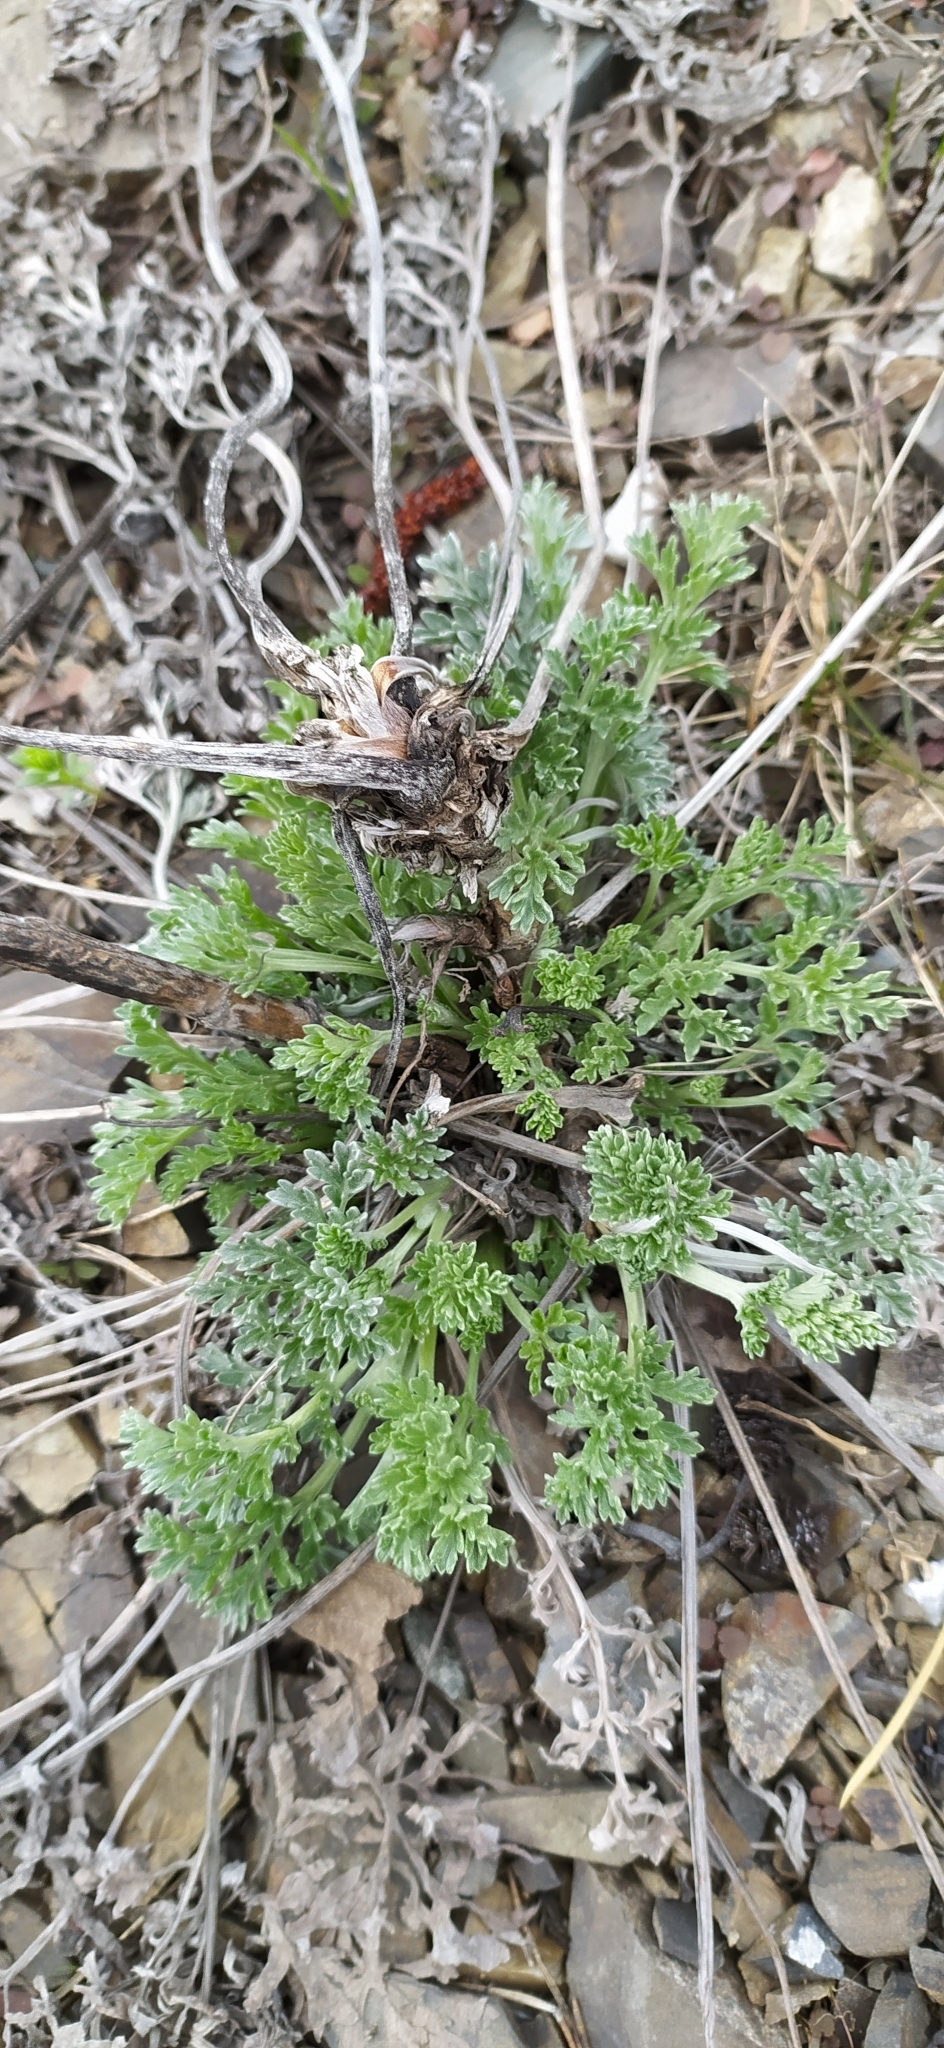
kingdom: Plantae
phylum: Tracheophyta
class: Magnoliopsida
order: Asterales
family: Asteraceae
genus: Artemisia
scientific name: Artemisia absinthium
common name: Wormwood
